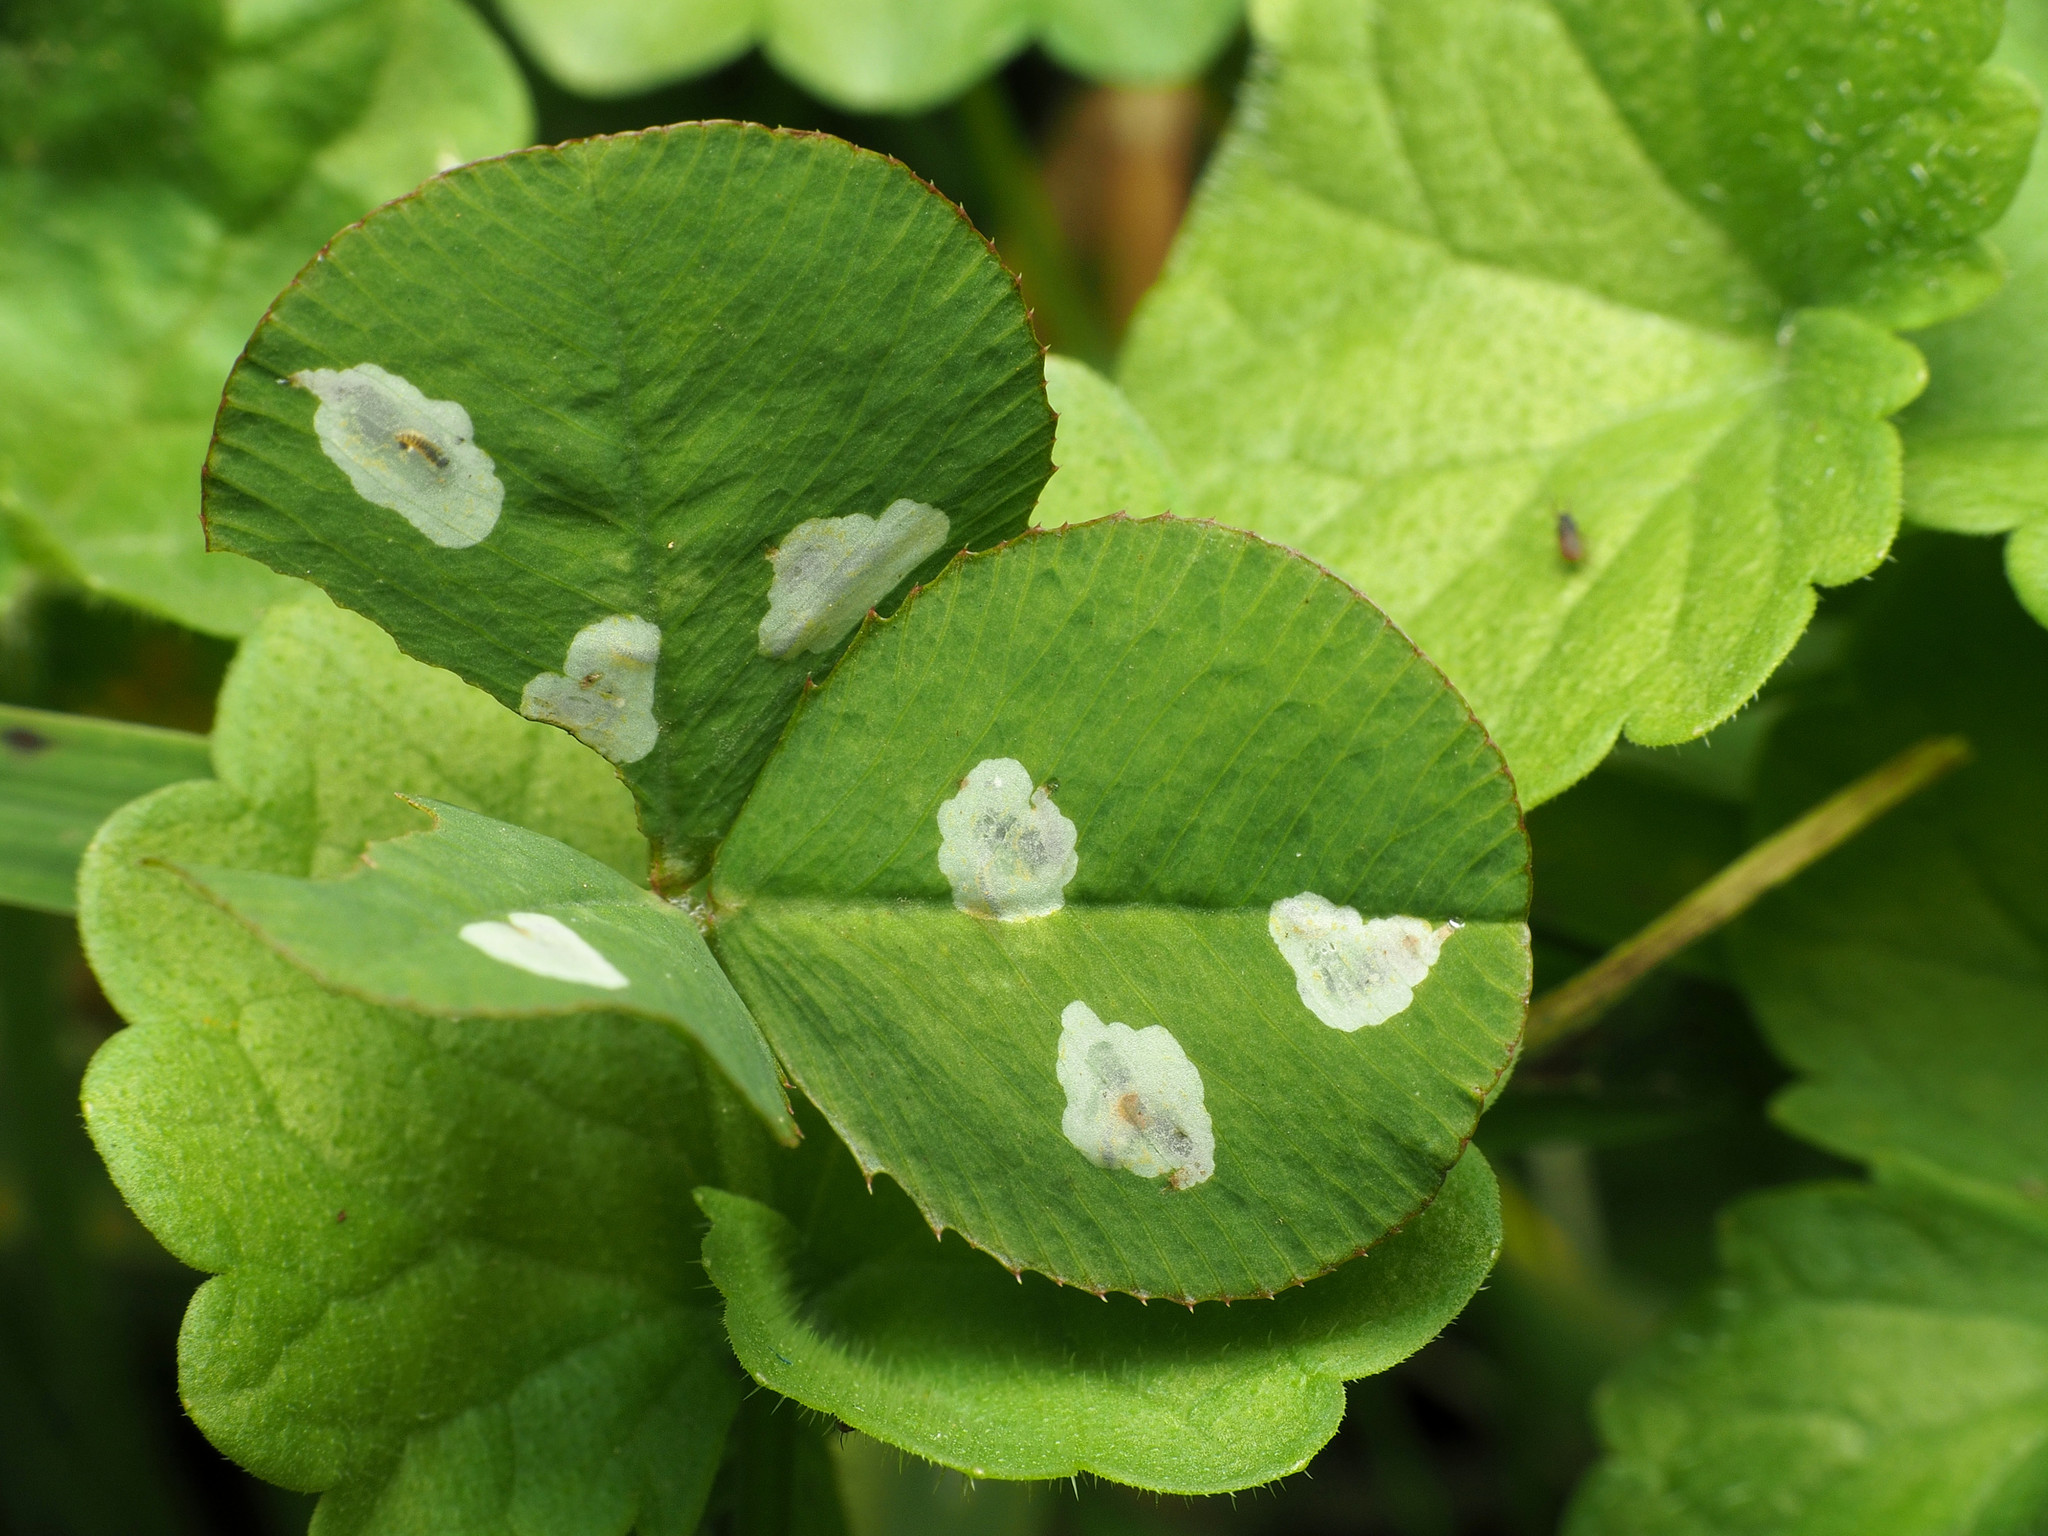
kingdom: Animalia
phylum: Arthropoda
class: Insecta
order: Lepidoptera
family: Gracillariidae
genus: Porphyrosela
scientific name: Porphyrosela minuta
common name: Leaf miner moth
